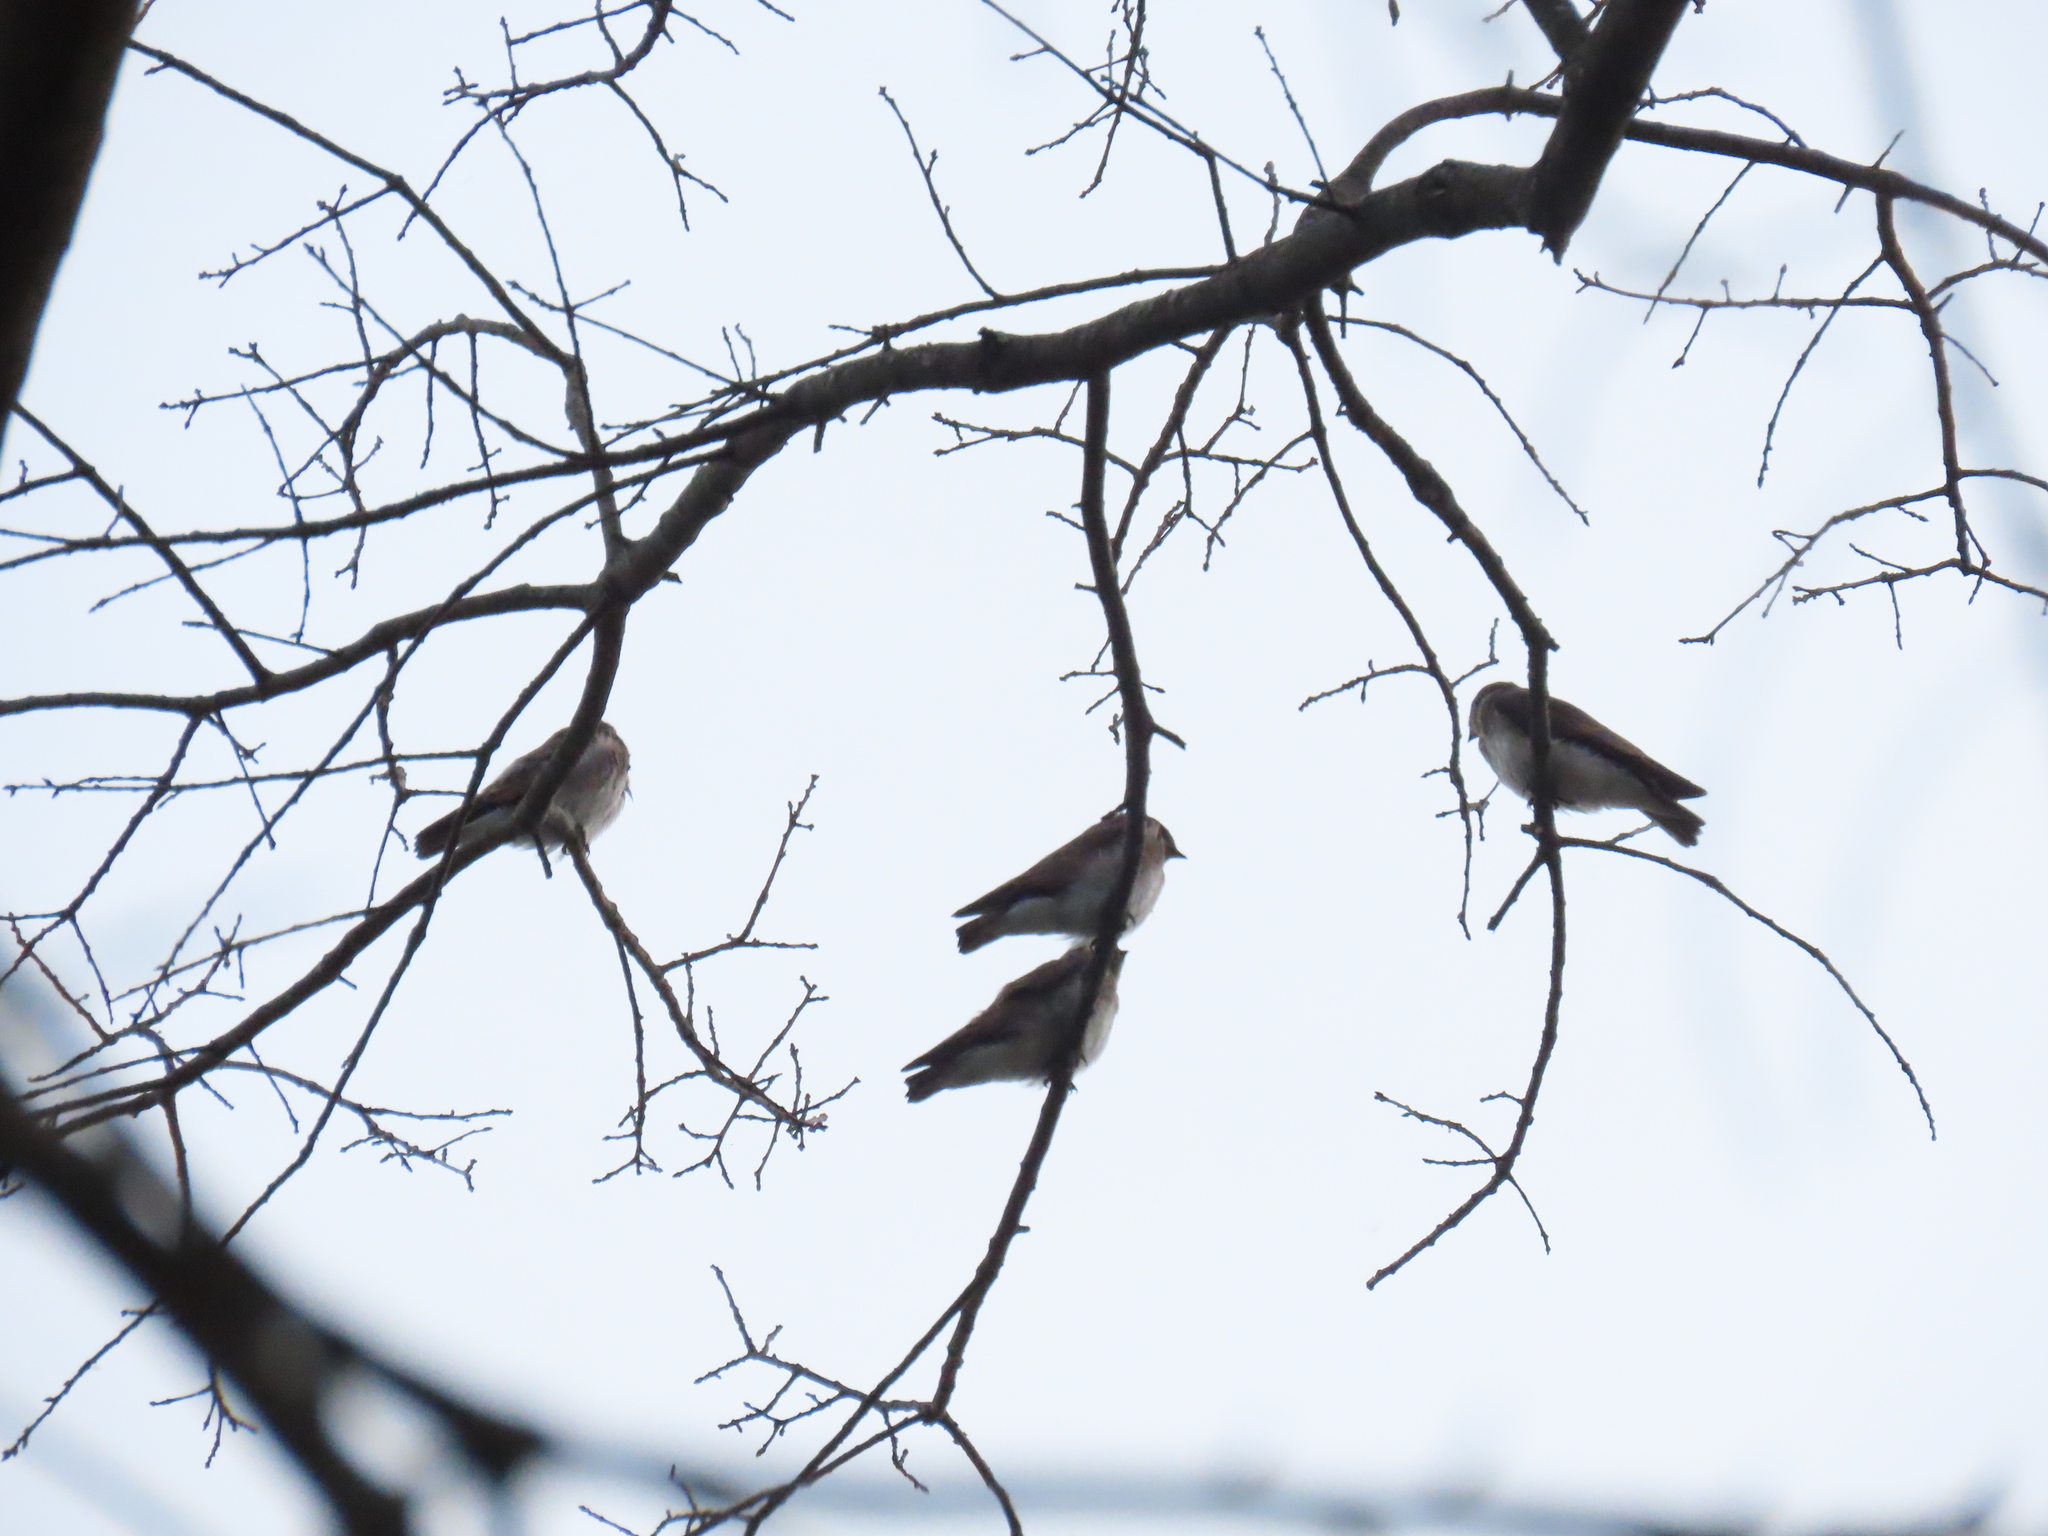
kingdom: Animalia
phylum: Chordata
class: Aves
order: Passeriformes
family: Hirundinidae
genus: Stelgidopteryx
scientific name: Stelgidopteryx serripennis
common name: Northern rough-winged swallow
